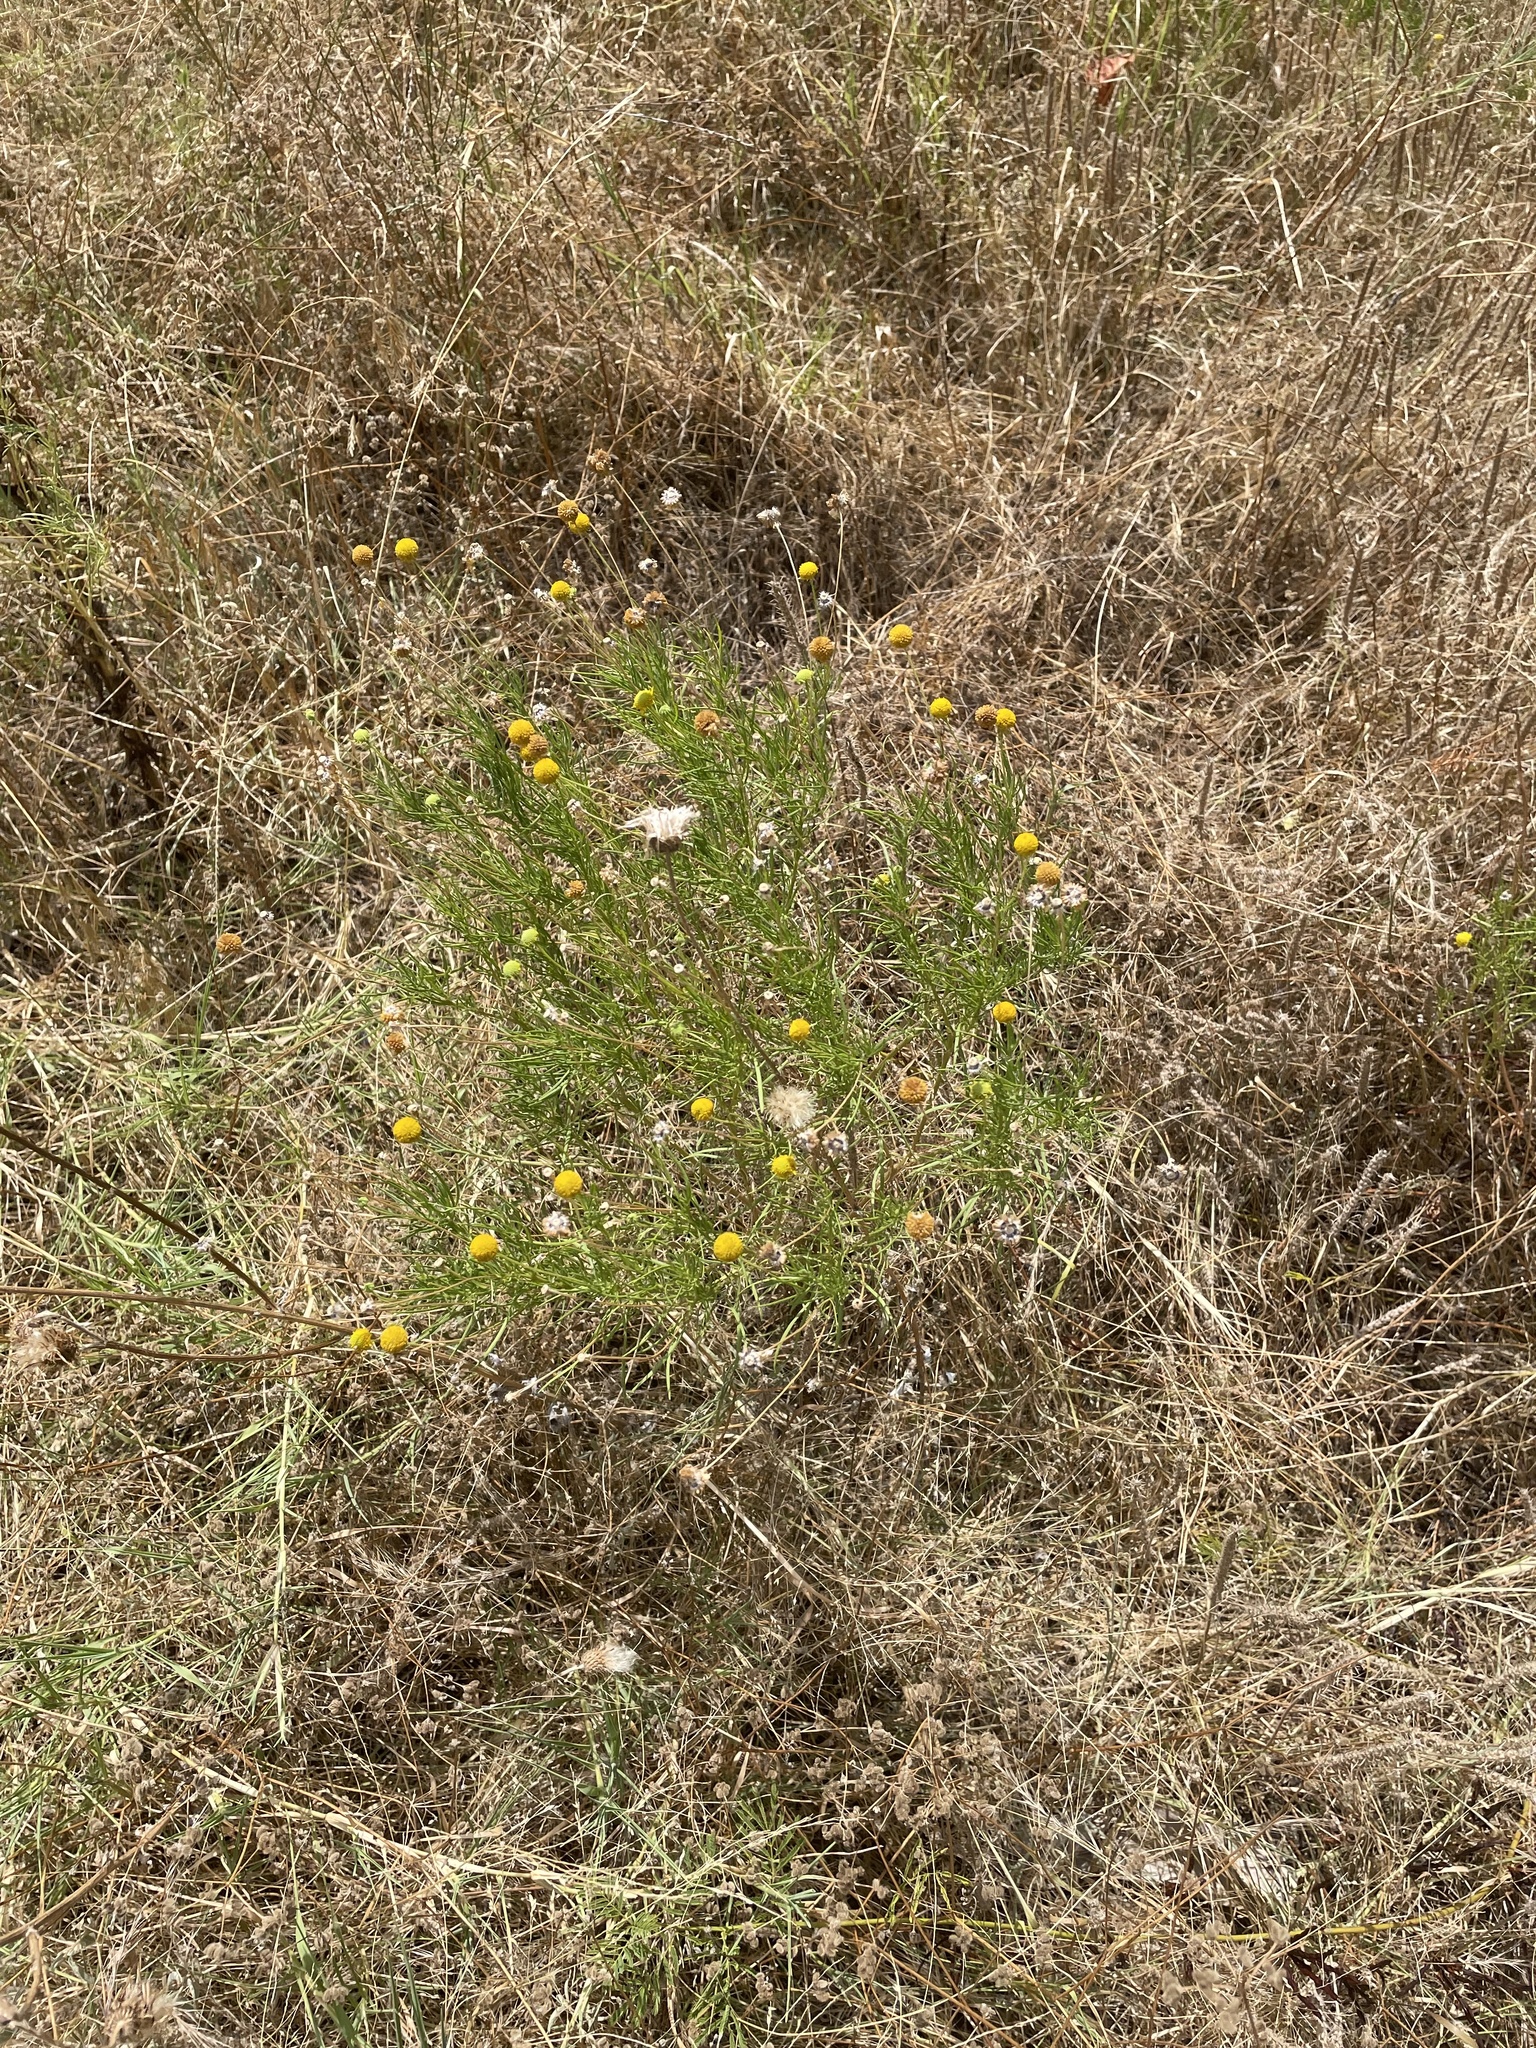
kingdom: Plantae
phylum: Tracheophyta
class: Magnoliopsida
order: Asterales
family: Asteraceae
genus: Helenium
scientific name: Helenium amarum
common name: Bitter sneezeweed
